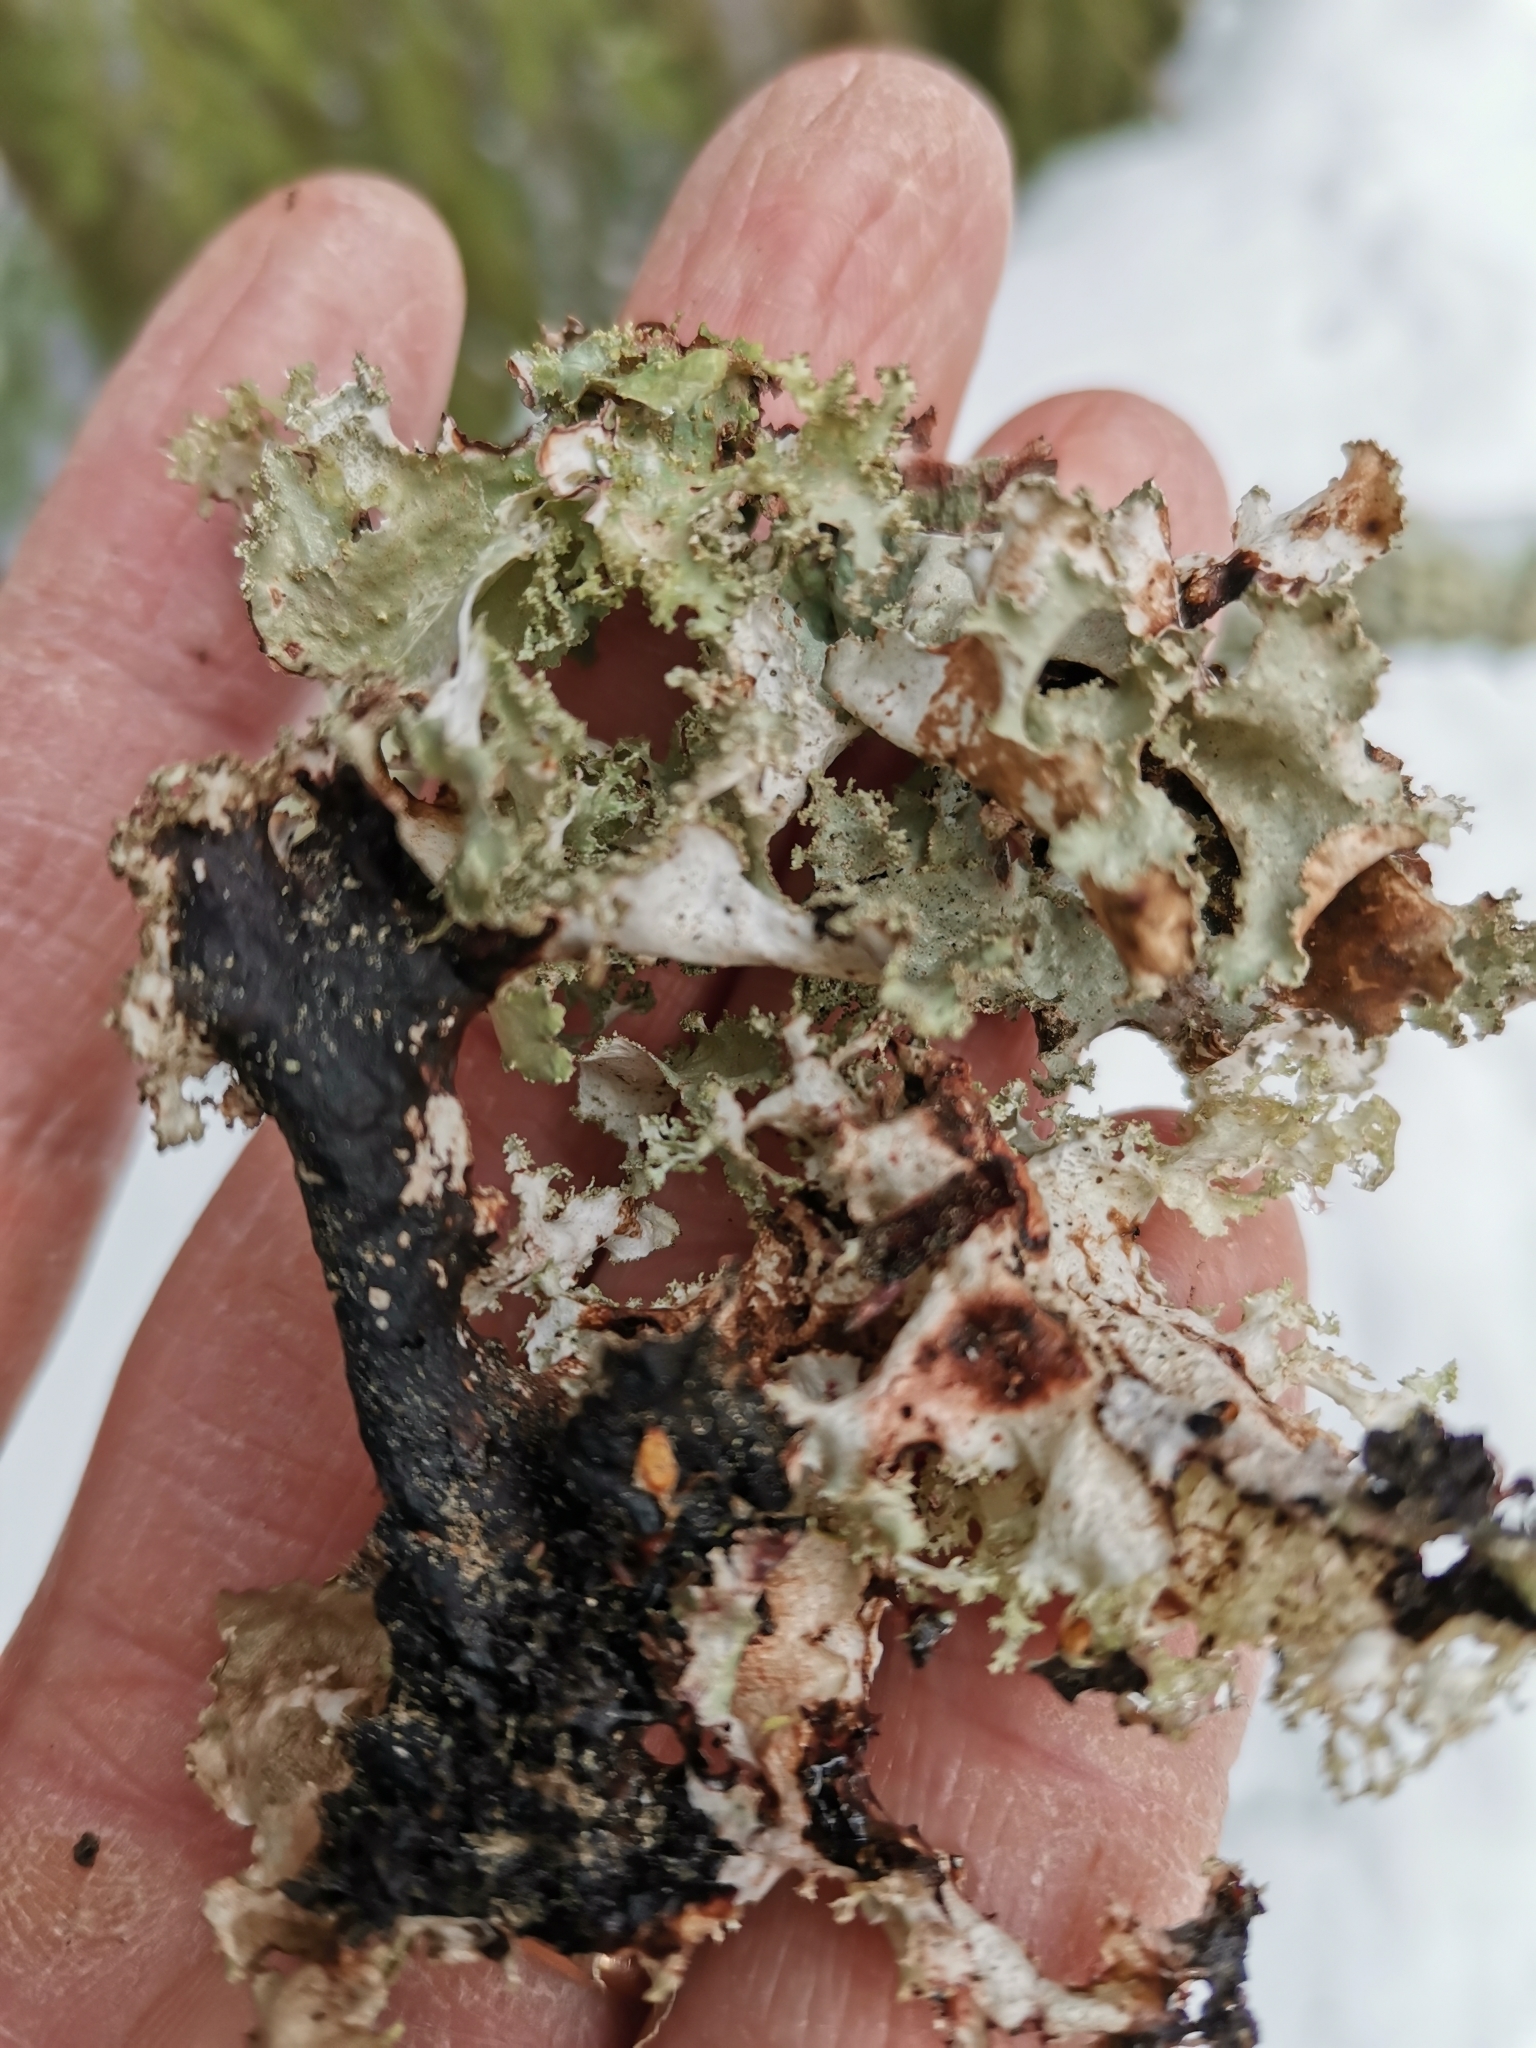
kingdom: Fungi
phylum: Ascomycota
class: Lecanoromycetes
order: Lecanorales
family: Parmeliaceae
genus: Platismatia
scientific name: Platismatia glauca
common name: Varied rag lichen
